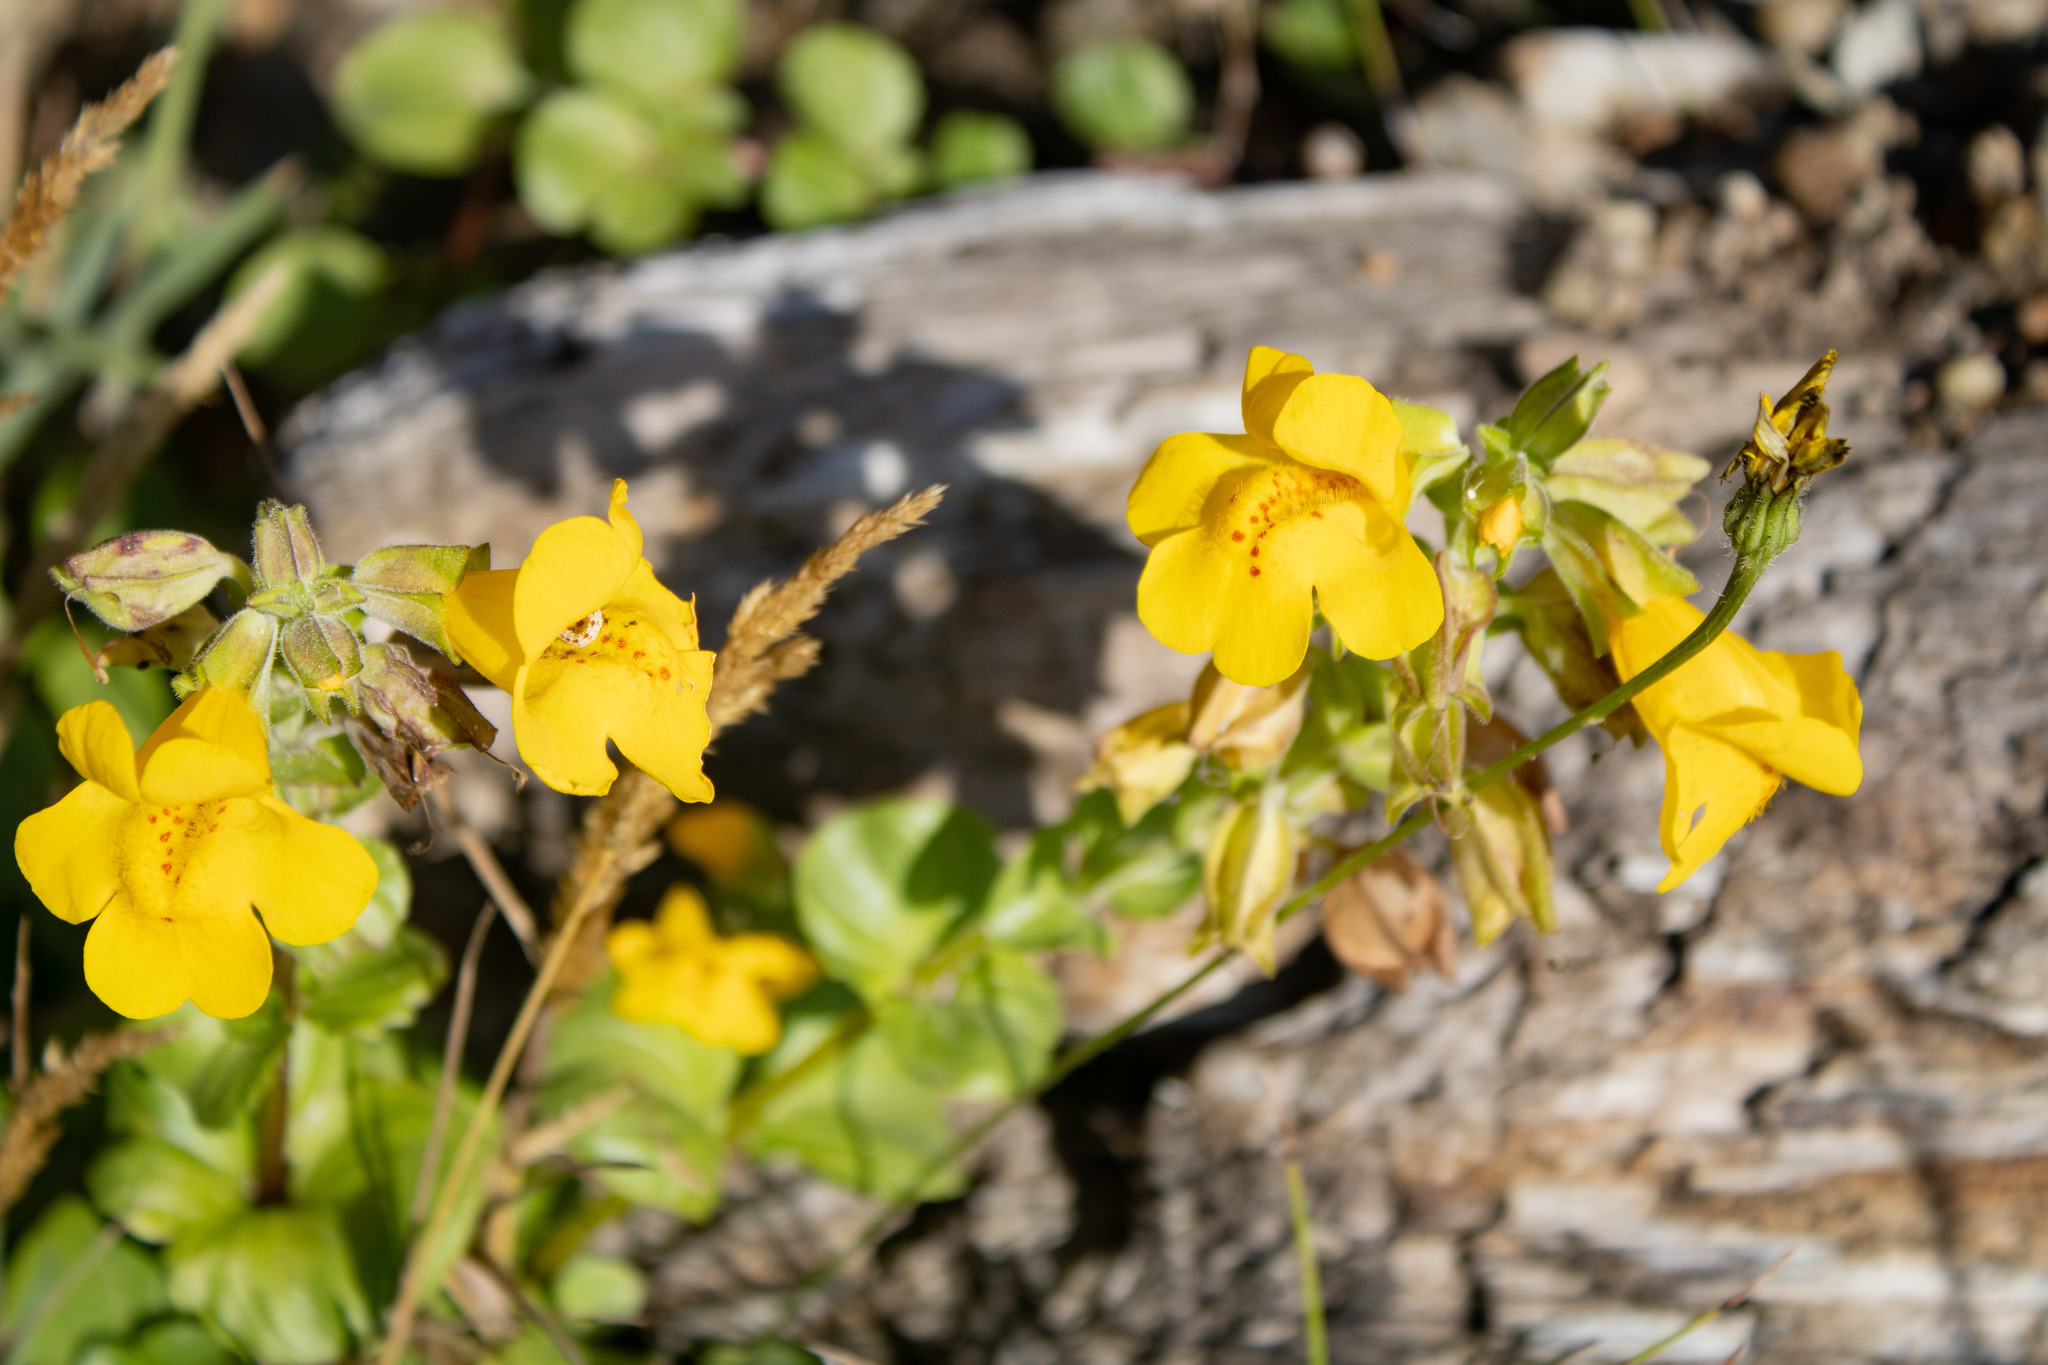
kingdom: Plantae
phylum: Tracheophyta
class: Magnoliopsida
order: Lamiales
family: Phrymaceae
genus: Erythranthe
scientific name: Erythranthe grandis
